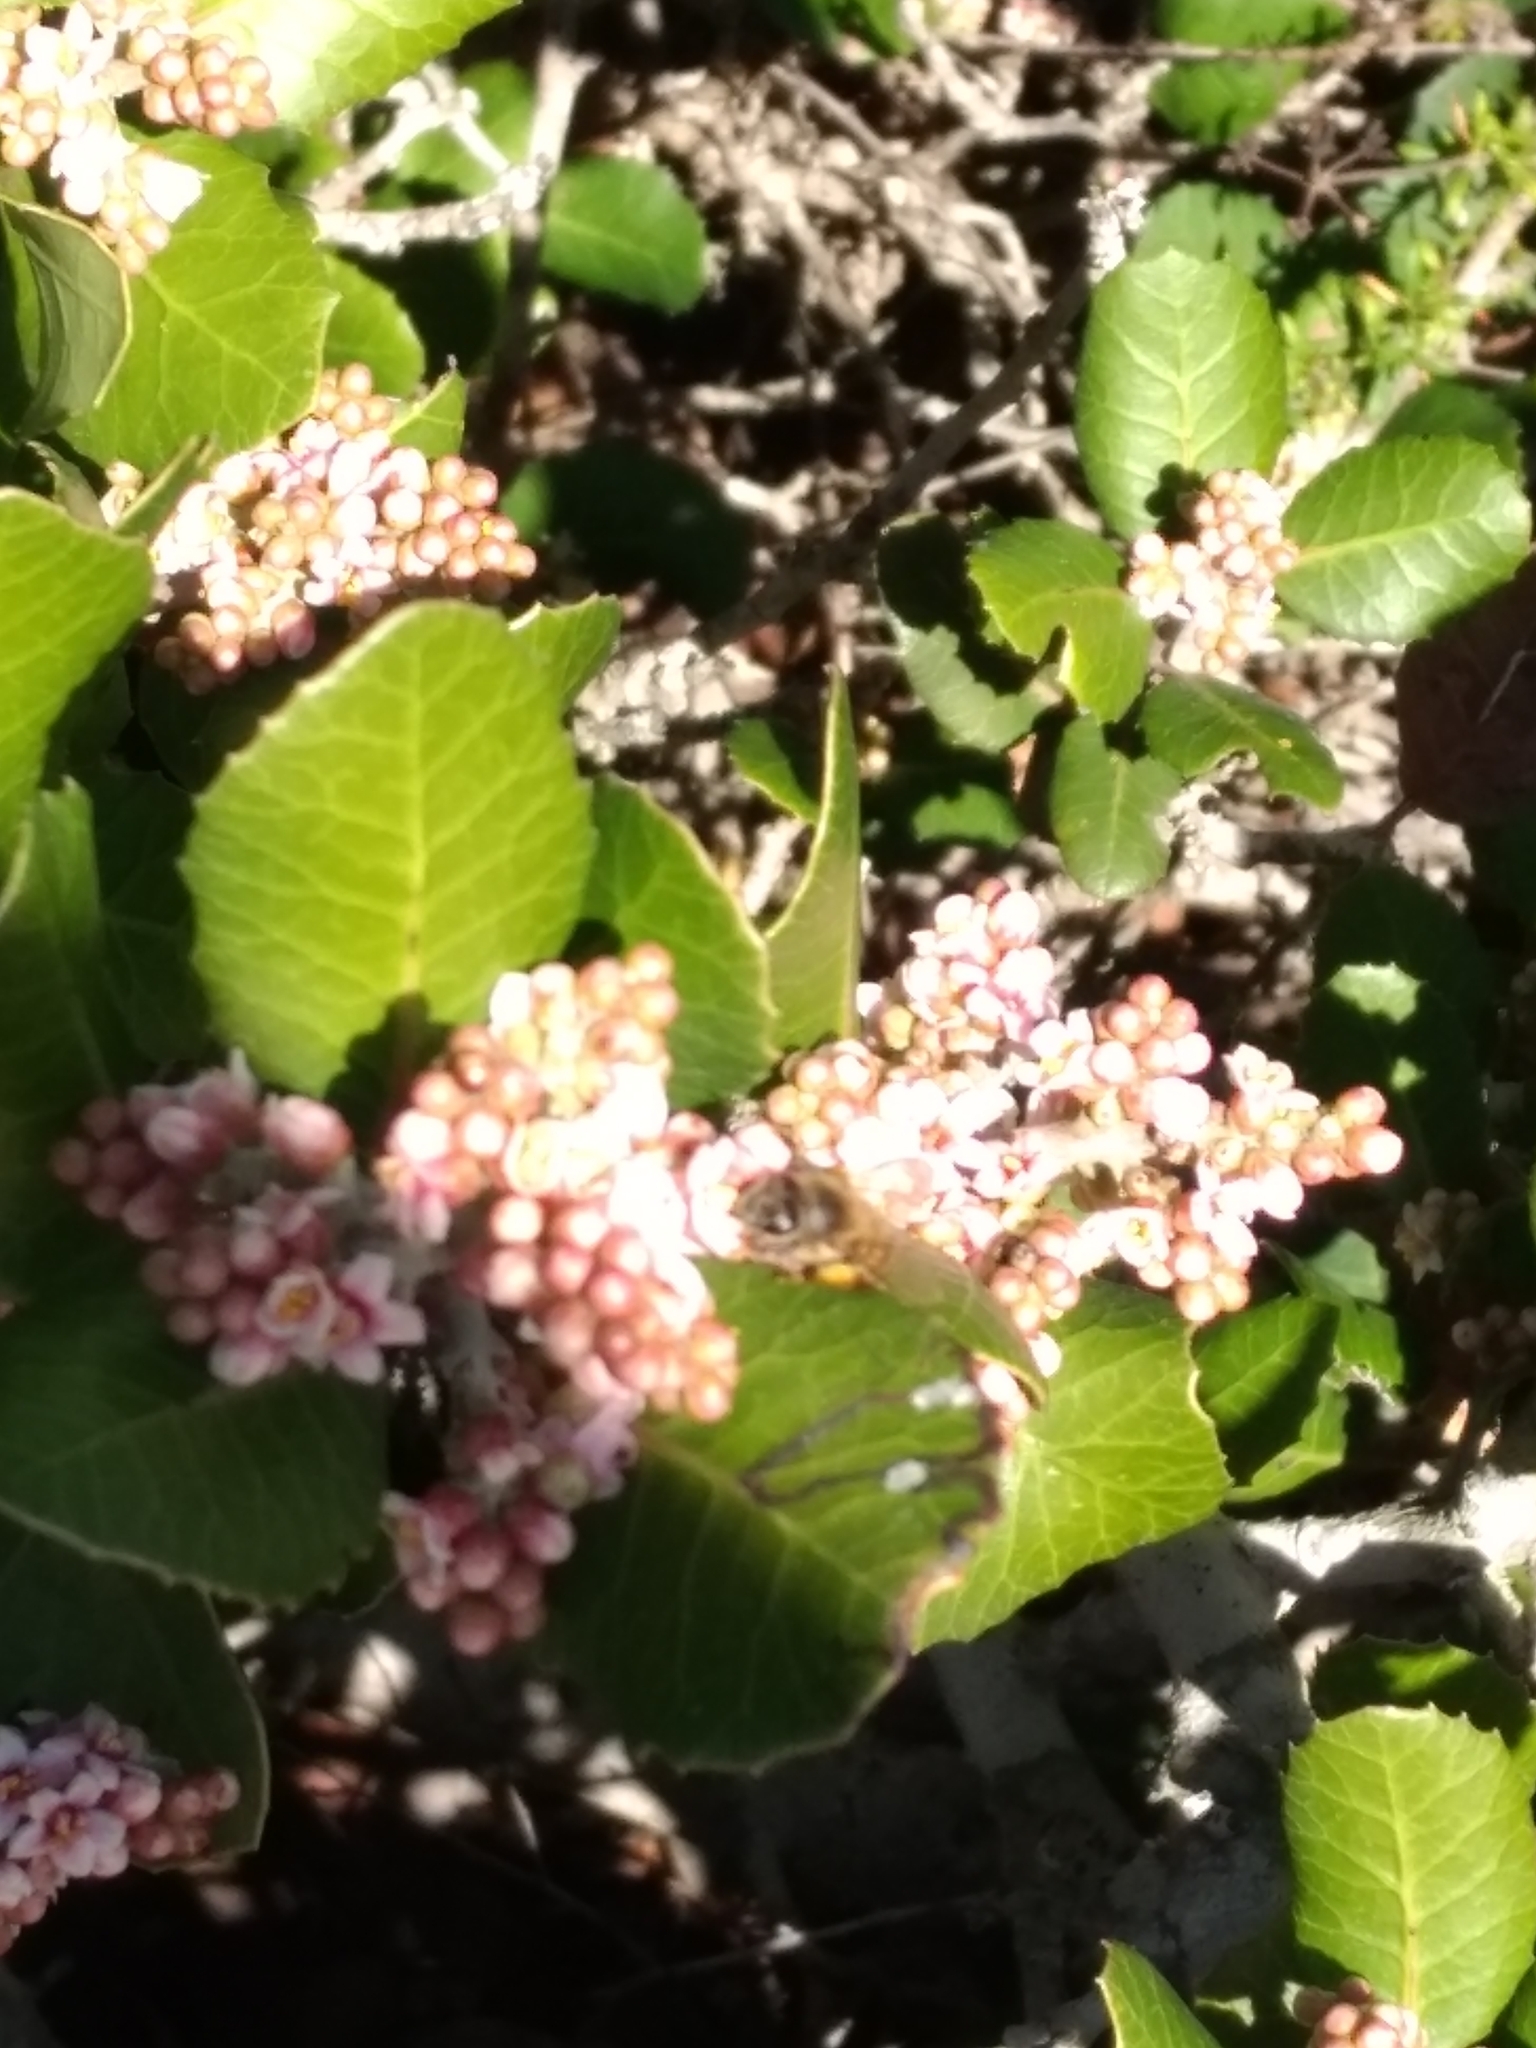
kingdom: Animalia
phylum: Arthropoda
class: Insecta
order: Hymenoptera
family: Apidae
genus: Apis
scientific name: Apis mellifera
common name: Honey bee
